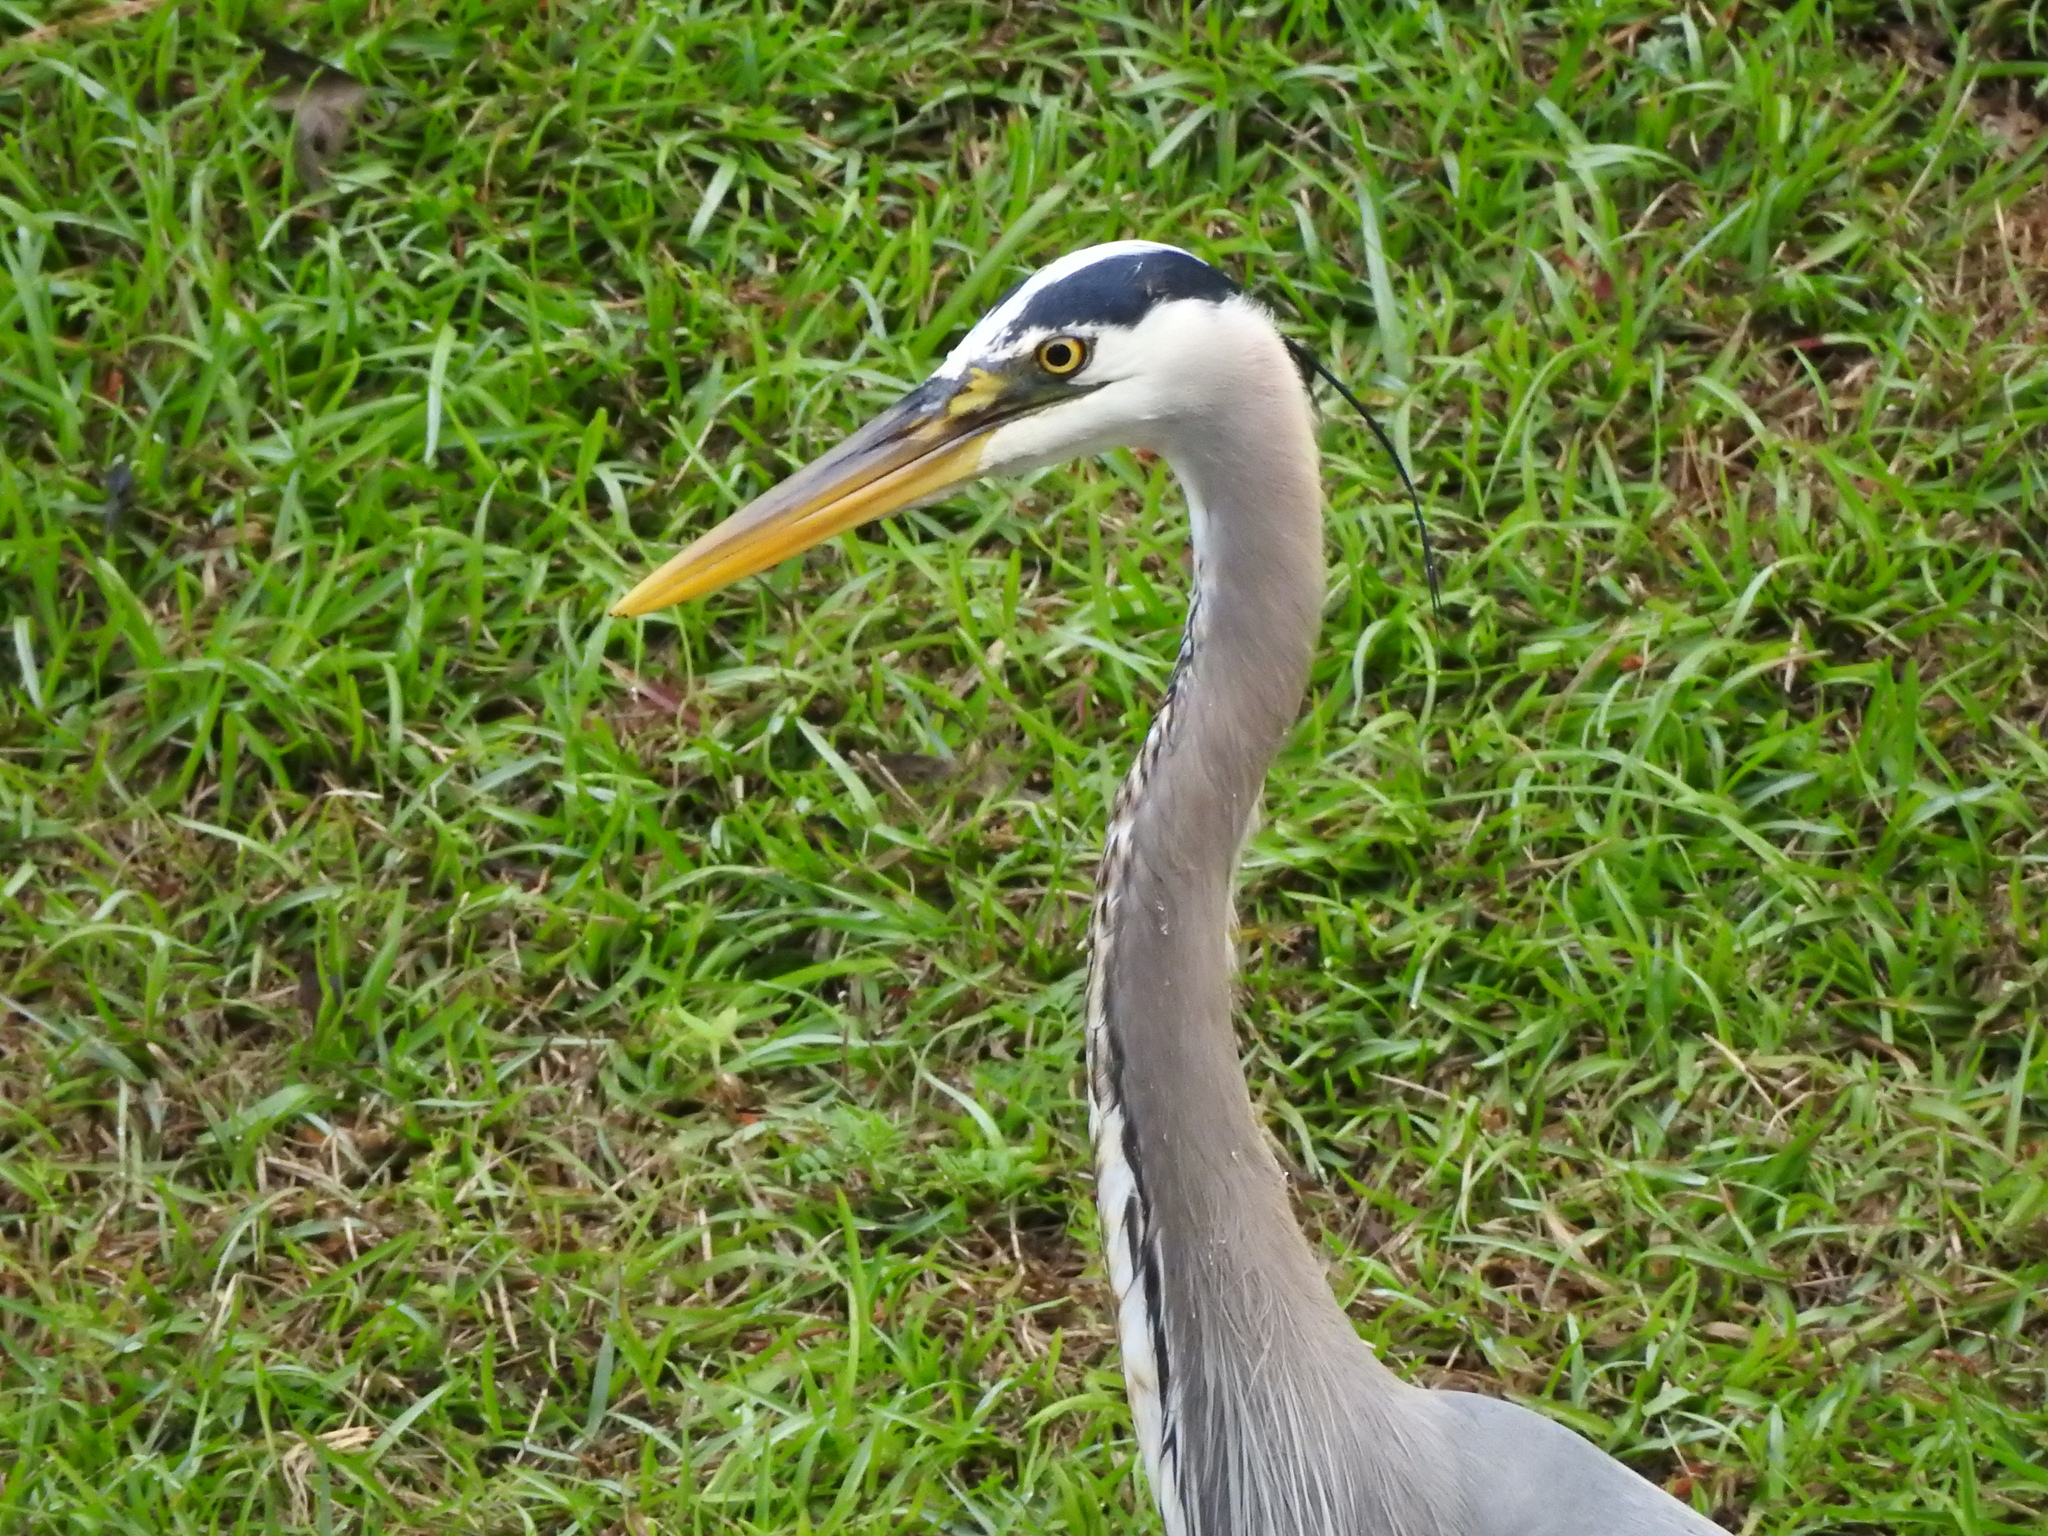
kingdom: Animalia
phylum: Chordata
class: Aves
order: Pelecaniformes
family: Ardeidae
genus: Ardea
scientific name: Ardea herodias
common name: Great blue heron
